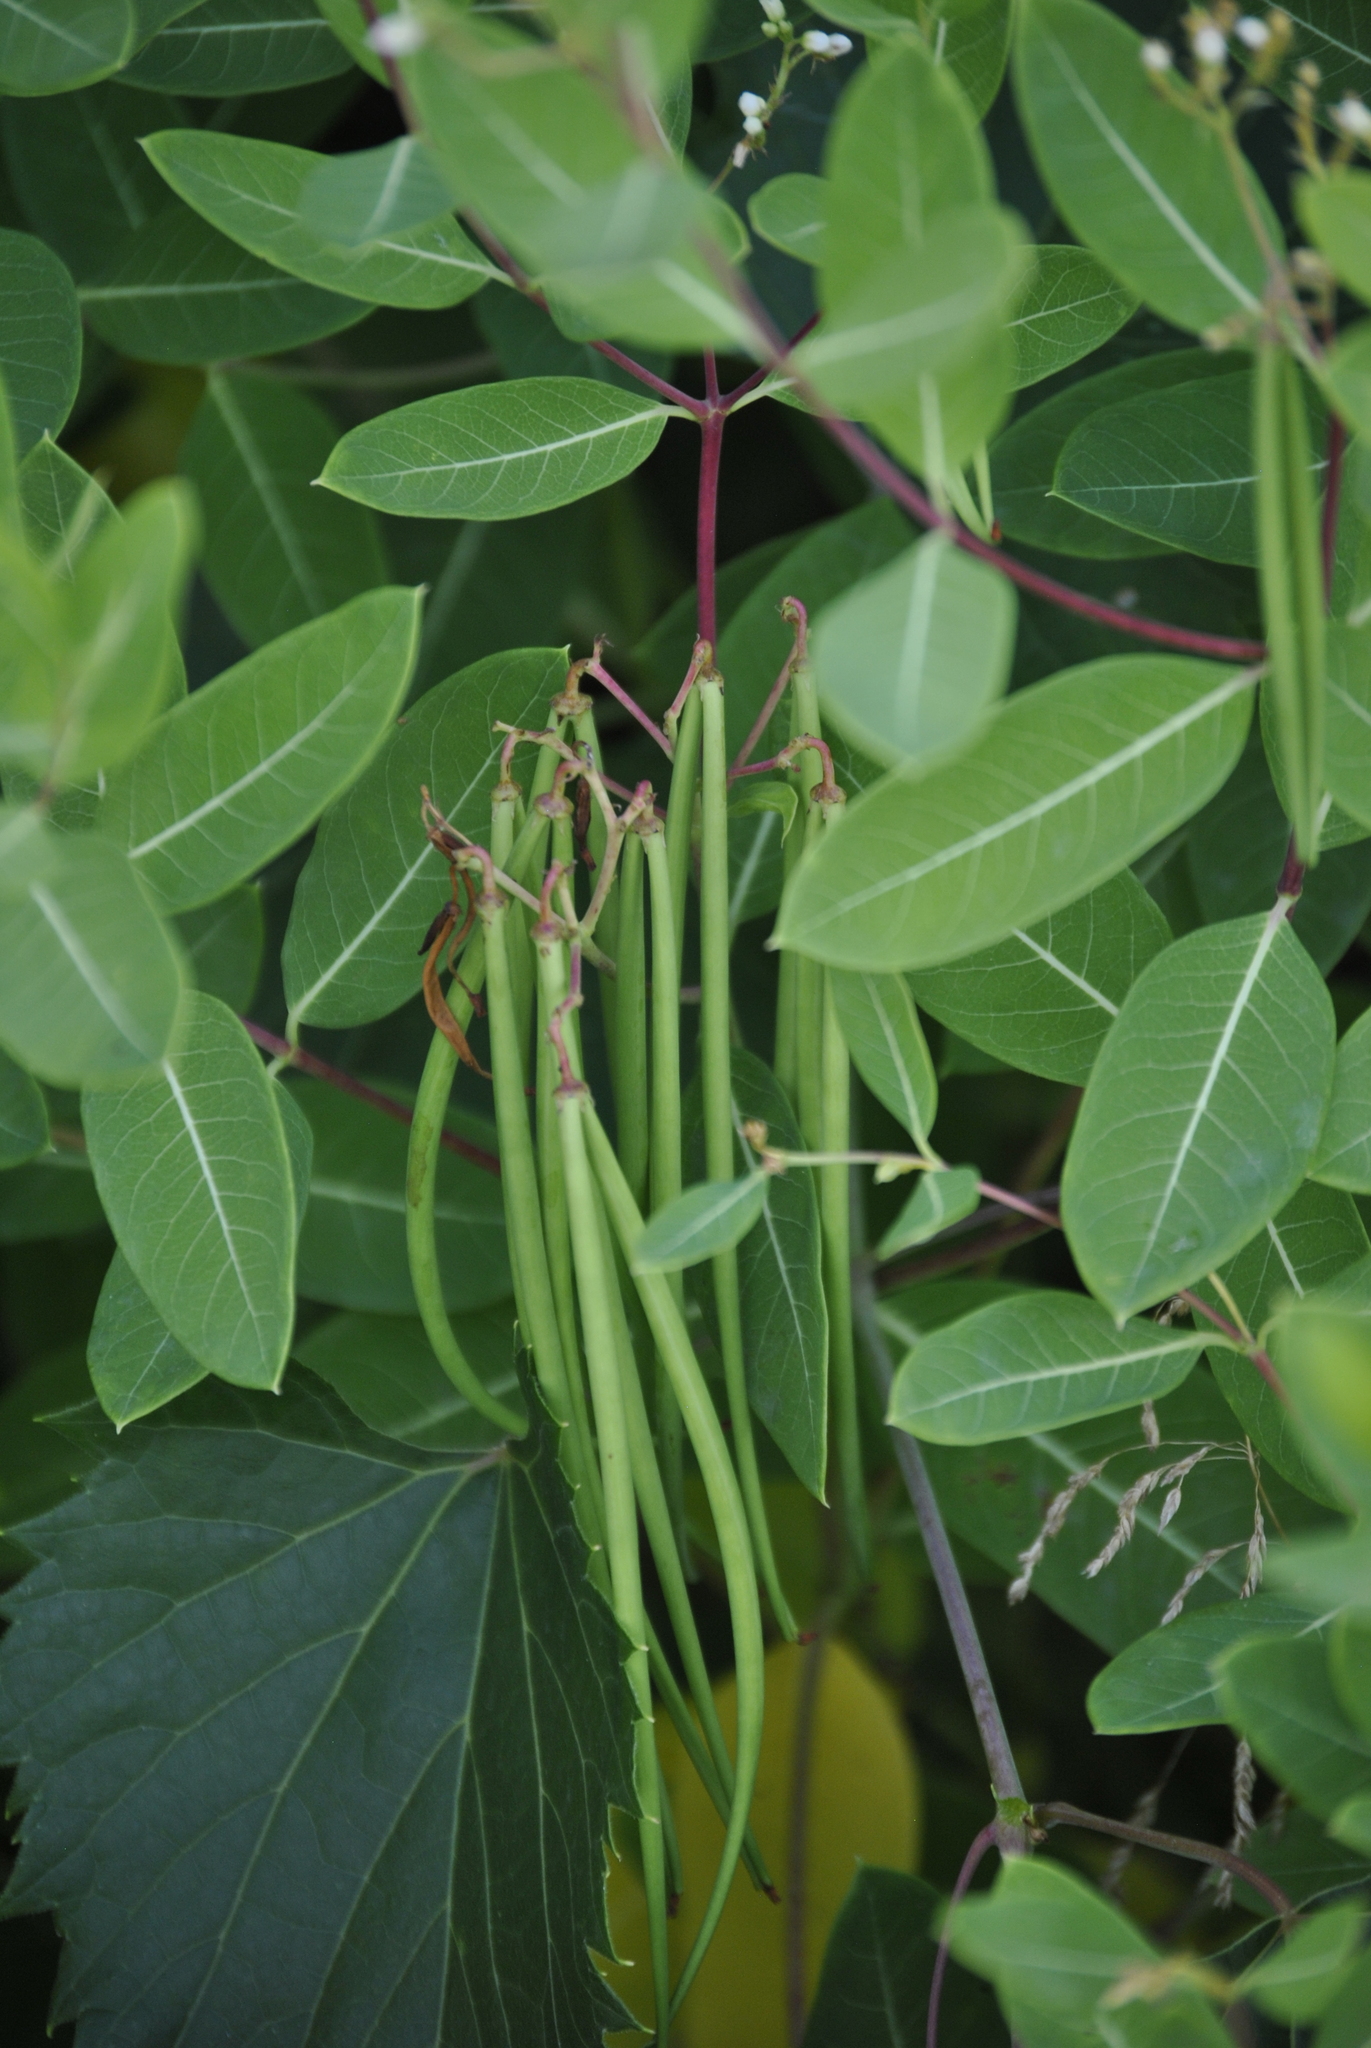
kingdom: Plantae
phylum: Tracheophyta
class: Magnoliopsida
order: Gentianales
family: Apocynaceae
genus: Apocynum
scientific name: Apocynum cannabinum
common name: Hemp dogbane
